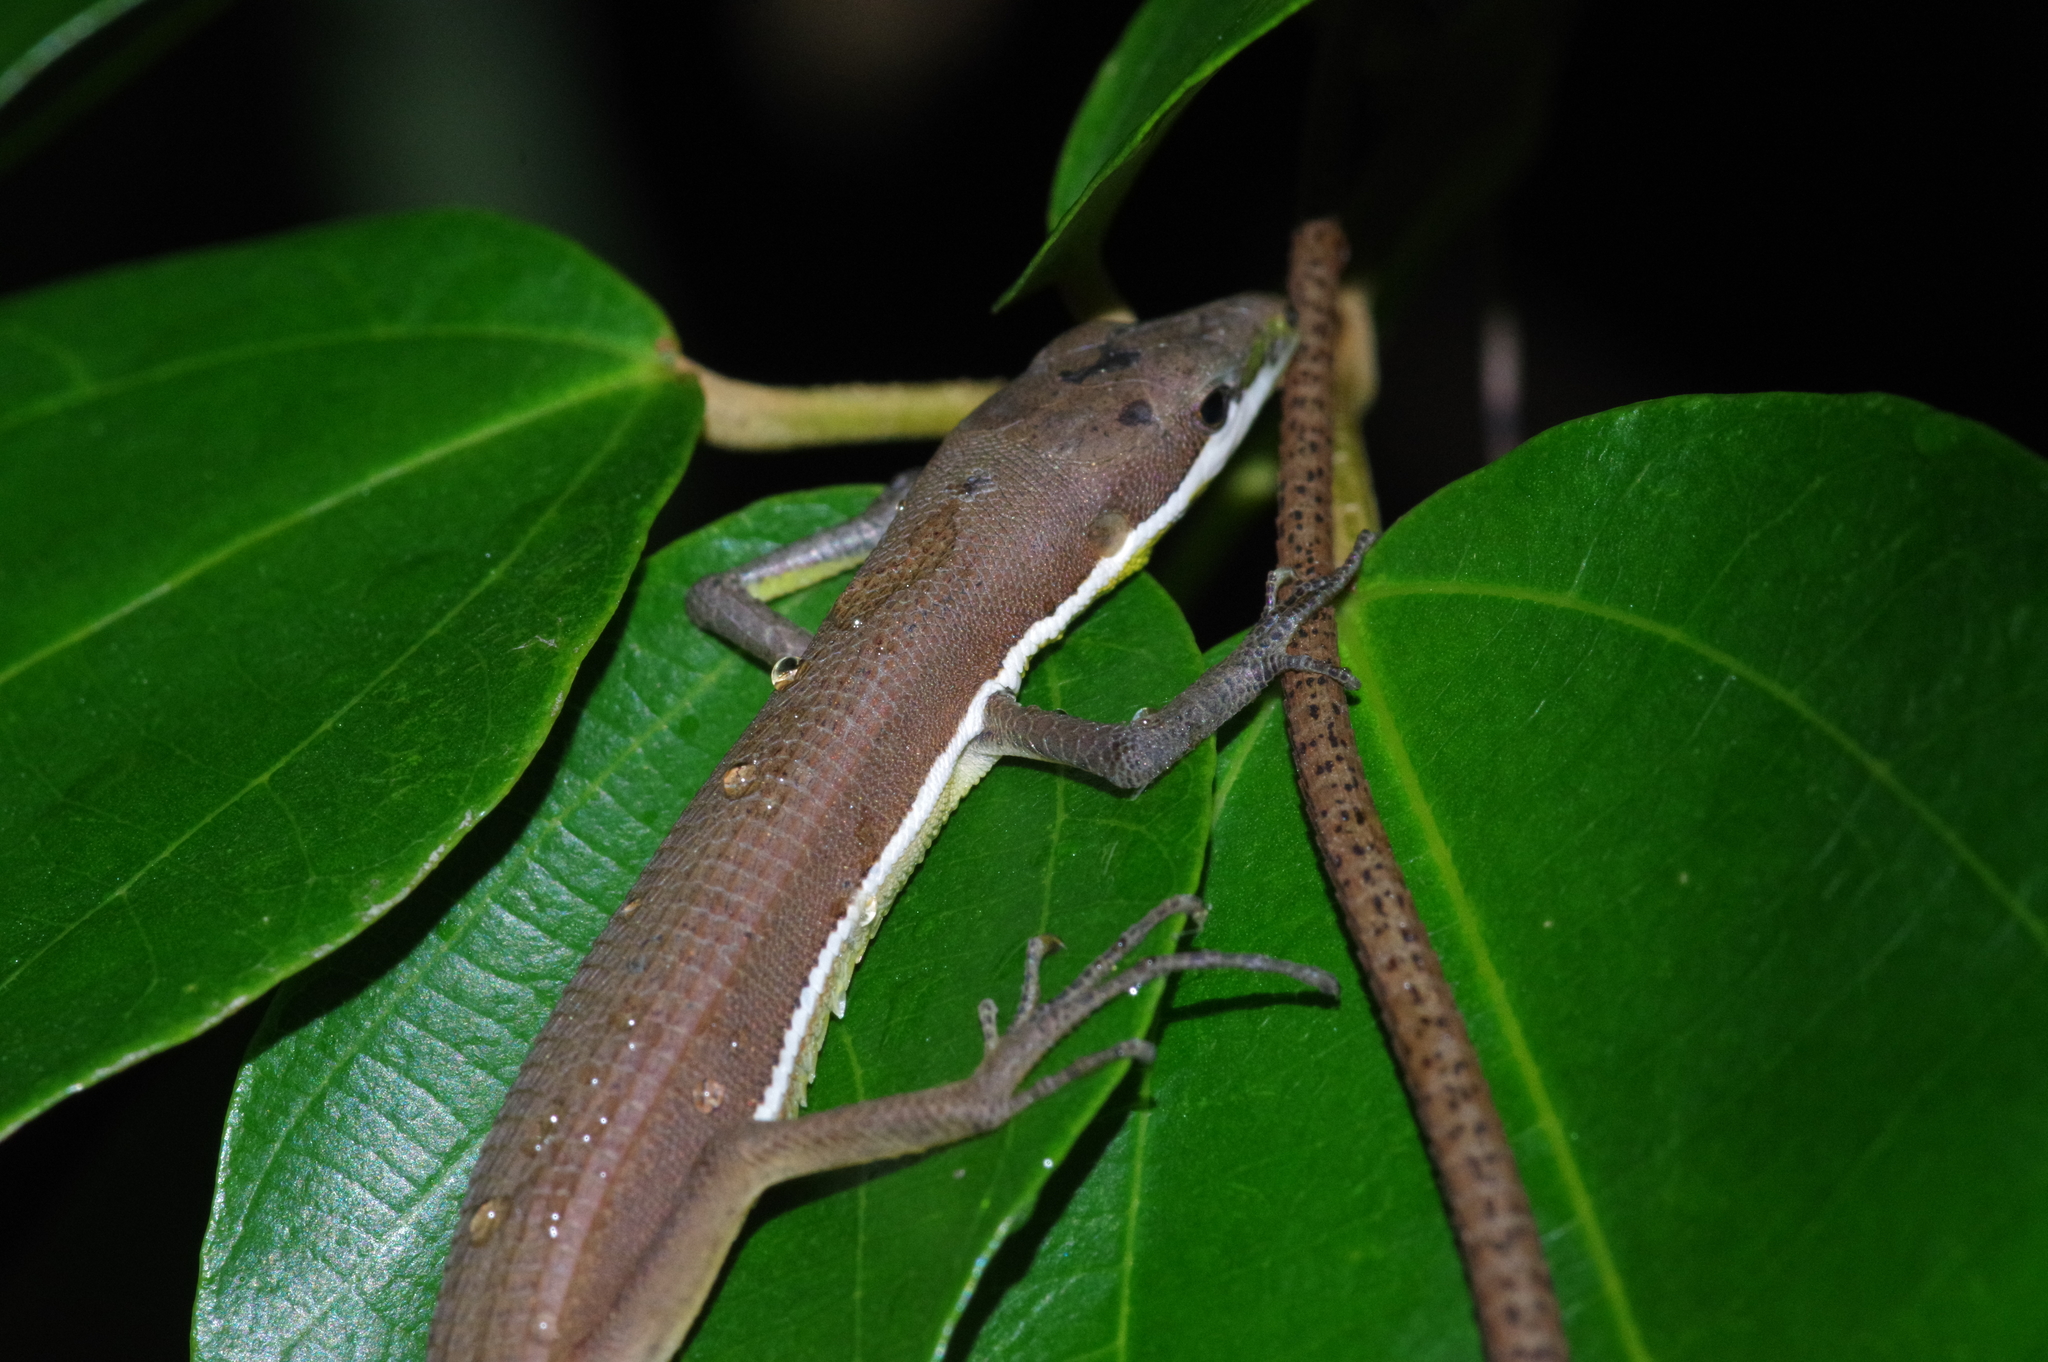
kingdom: Animalia
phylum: Chordata
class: Squamata
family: Lacertidae
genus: Takydromus
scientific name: Takydromus smaragdinus
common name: Green grass lizard
